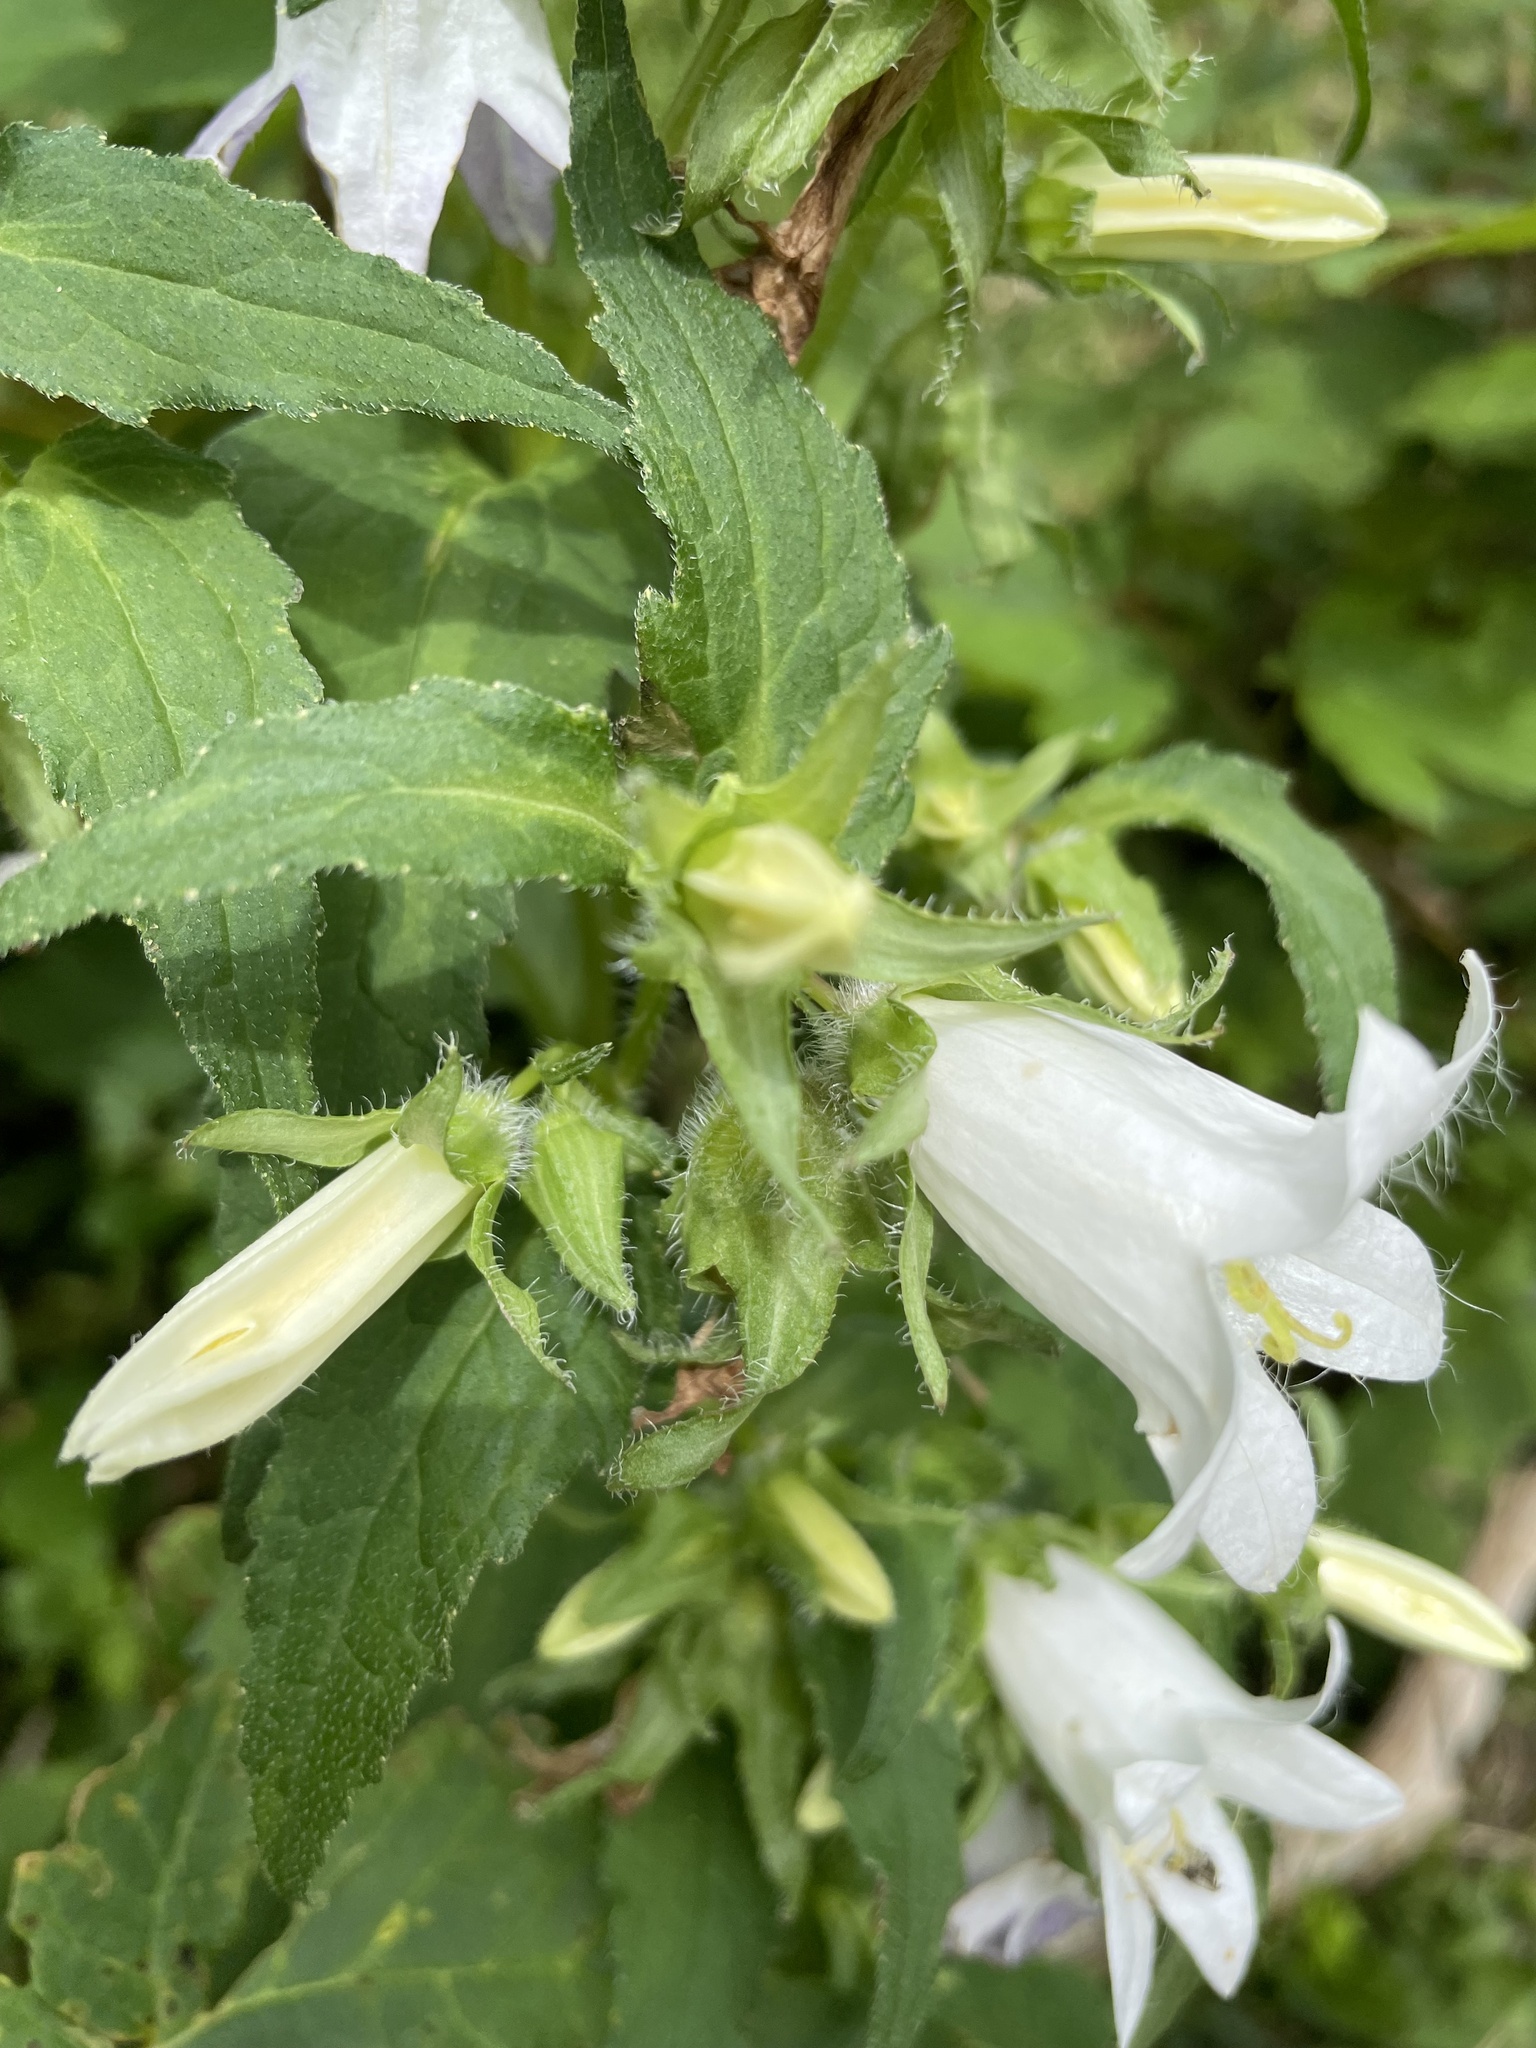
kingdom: Plantae
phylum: Tracheophyta
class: Magnoliopsida
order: Asterales
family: Campanulaceae
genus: Campanula
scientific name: Campanula trachelium
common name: Nettle-leaved bellflower
